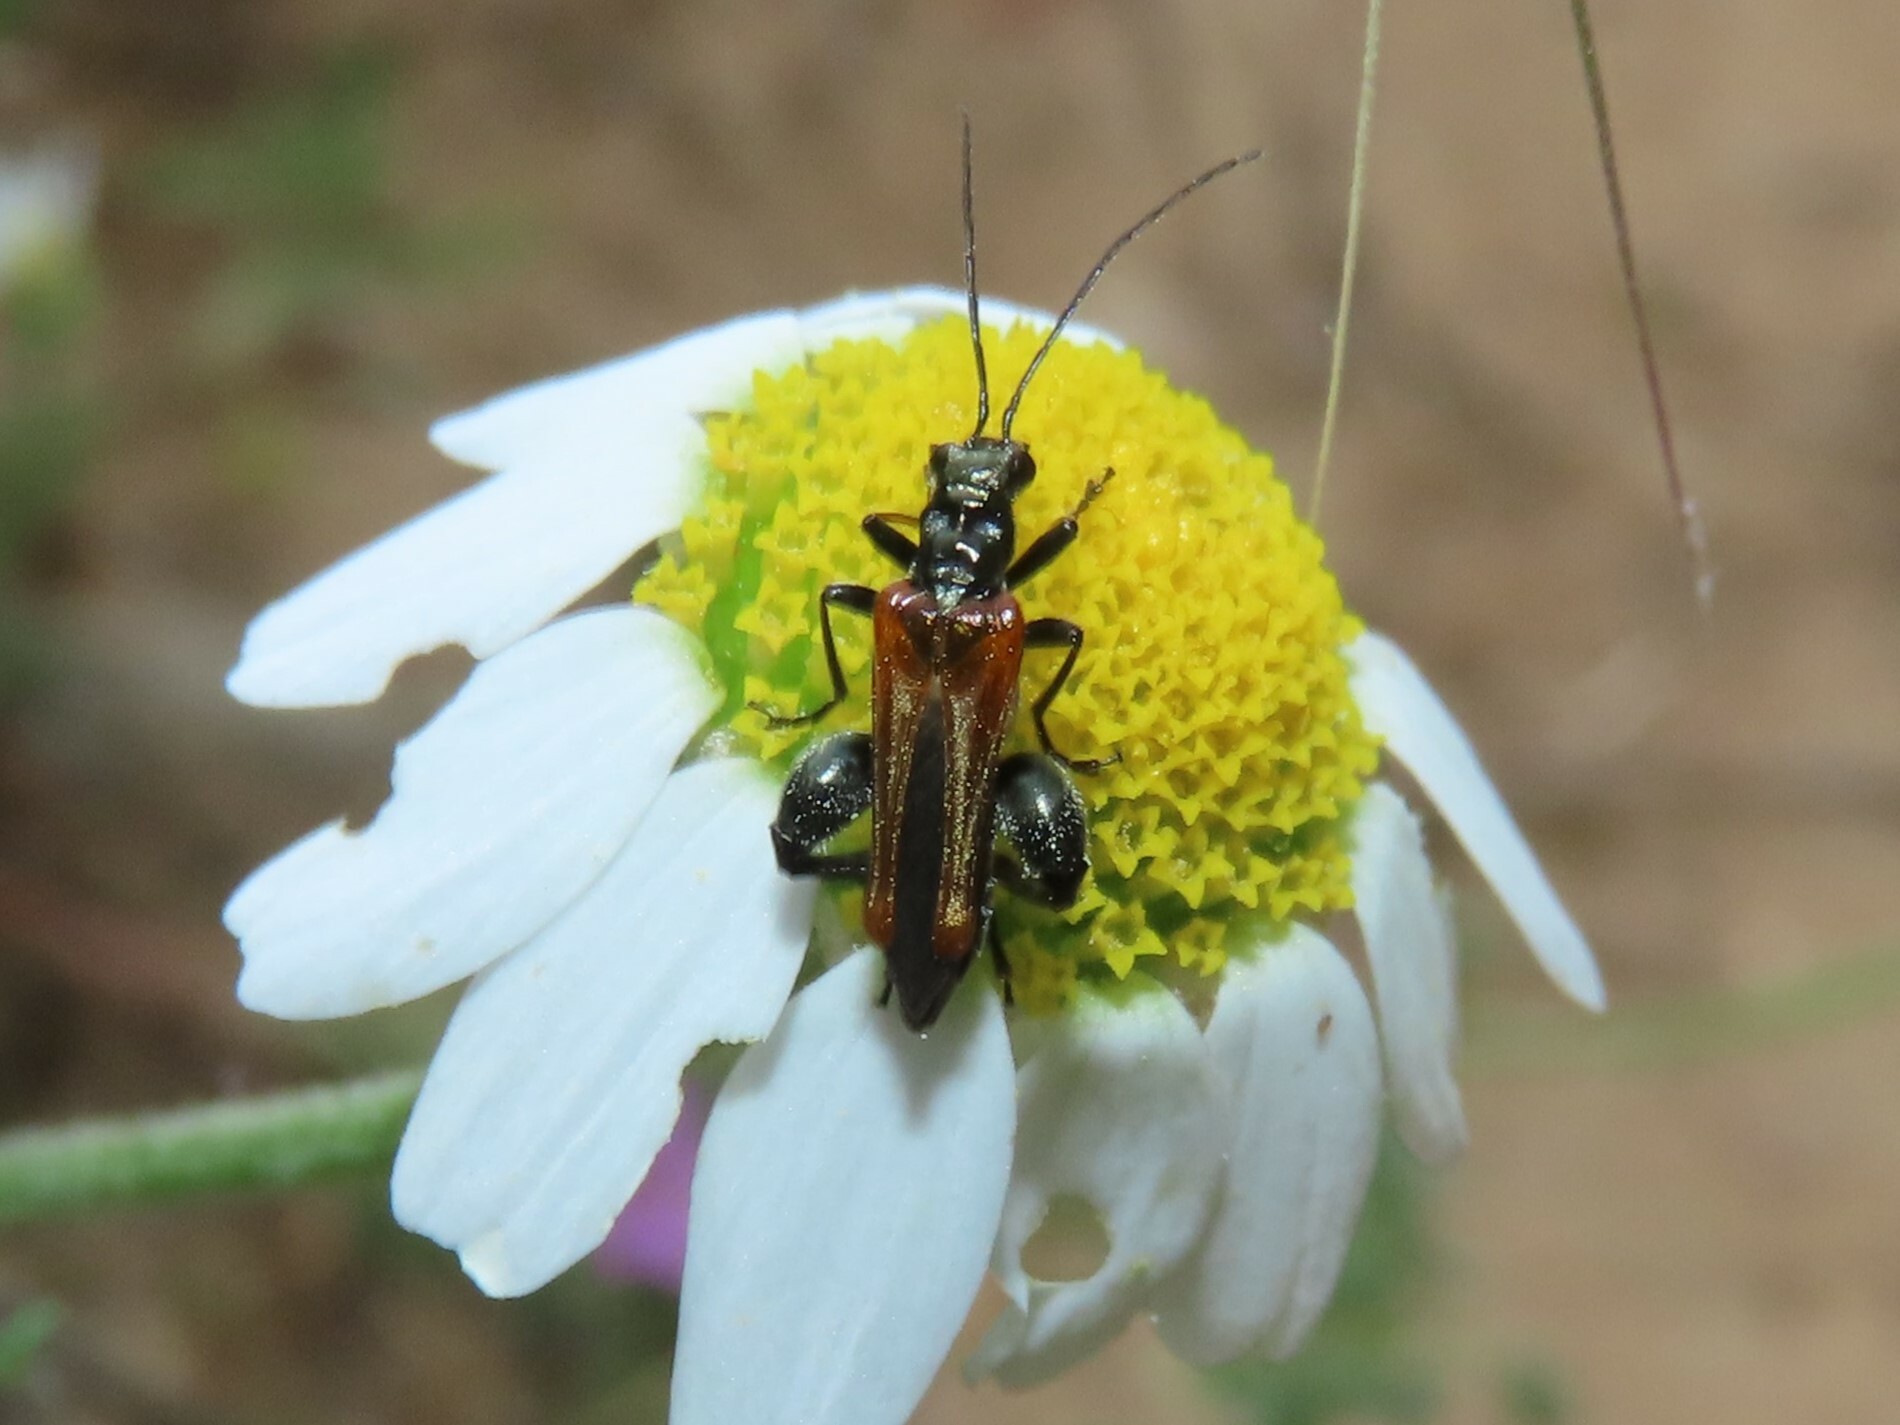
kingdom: Animalia
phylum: Arthropoda
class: Insecta
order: Coleoptera
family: Oedemeridae
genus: Oedemera
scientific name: Oedemera simplex
